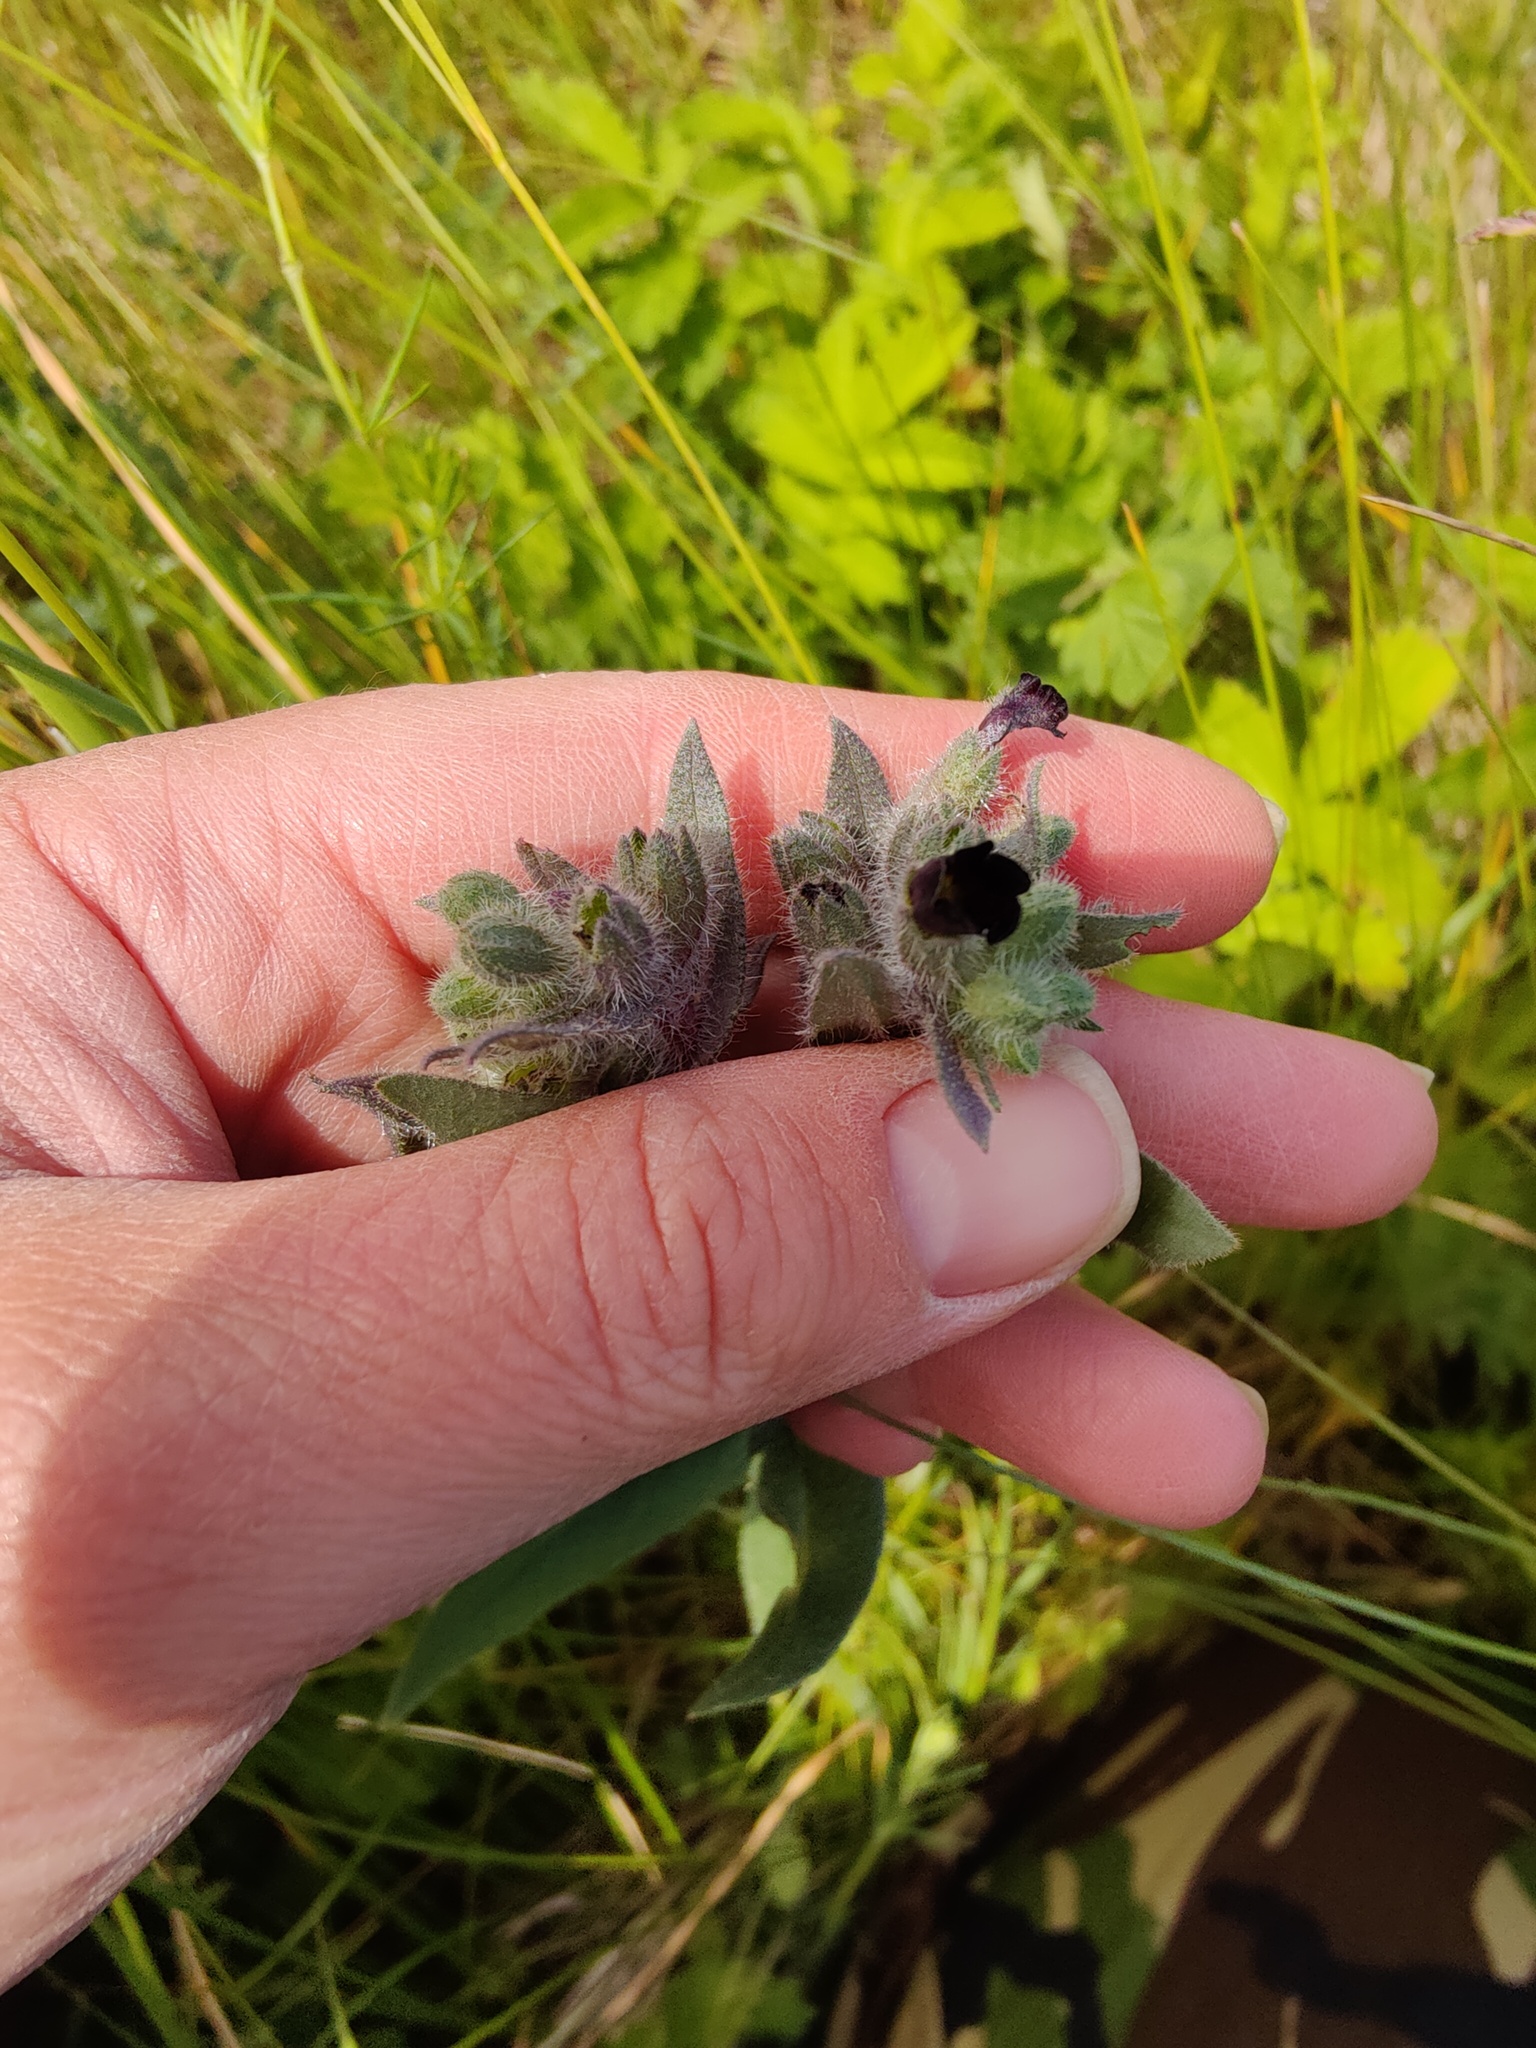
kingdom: Plantae
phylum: Tracheophyta
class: Magnoliopsida
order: Boraginales
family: Boraginaceae
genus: Nonea
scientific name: Nonea pulla
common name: Brown nonea
